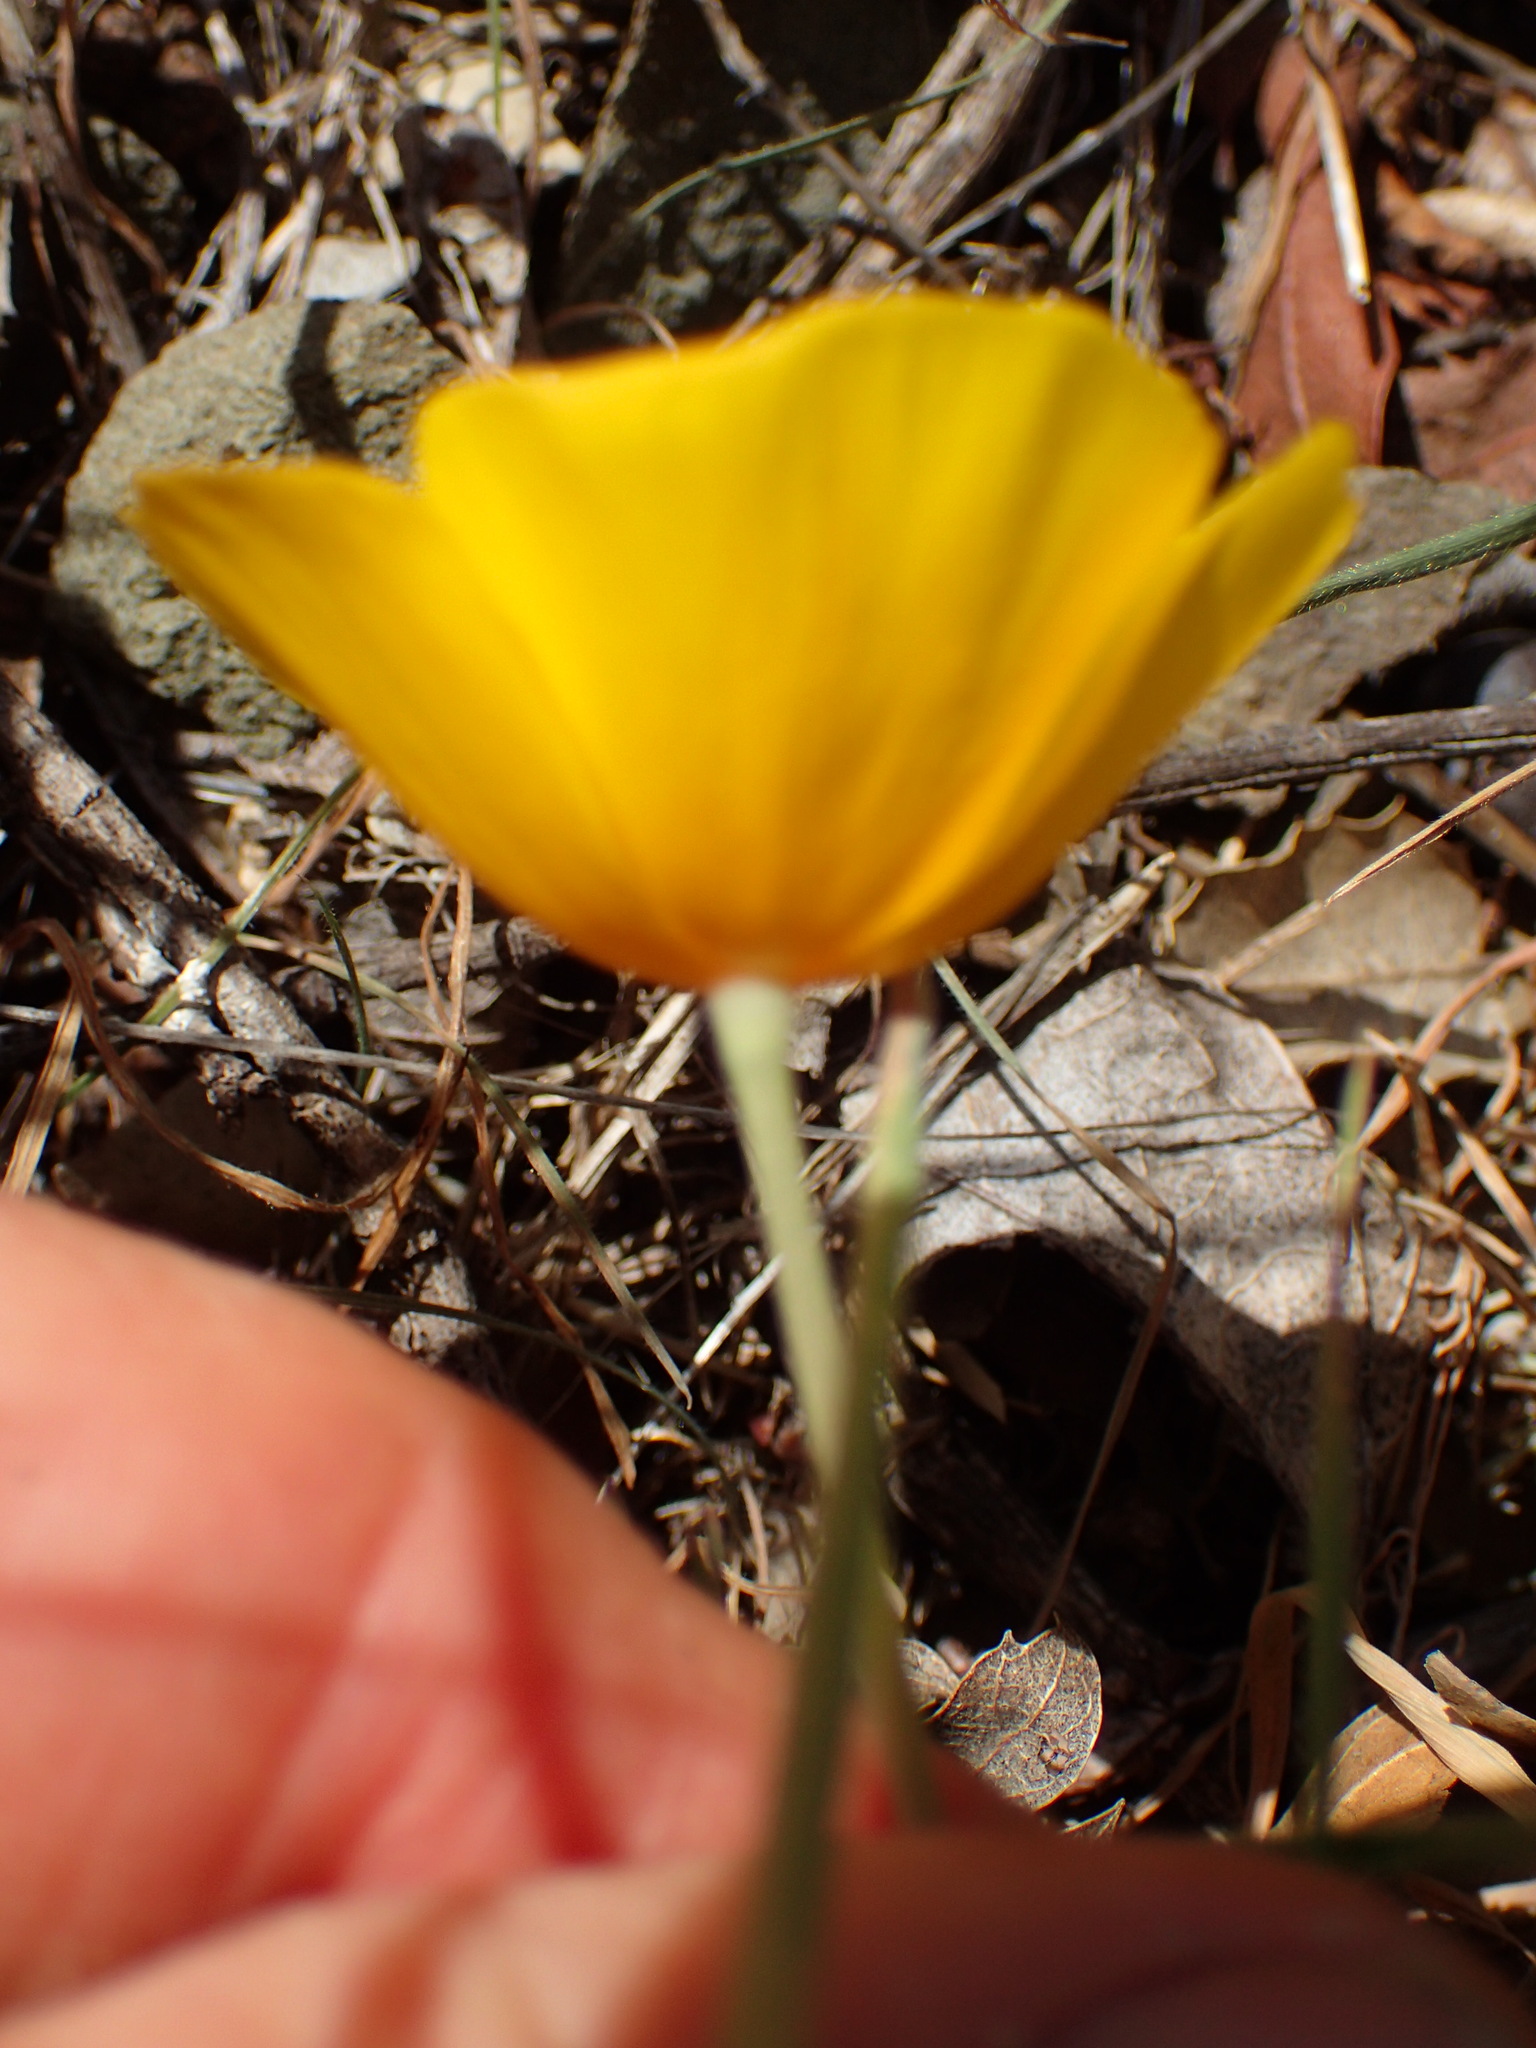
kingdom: Plantae
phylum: Tracheophyta
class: Magnoliopsida
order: Ranunculales
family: Papaveraceae
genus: Eschscholzia
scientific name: Eschscholzia caespitosa
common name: Tufted california-poppy
